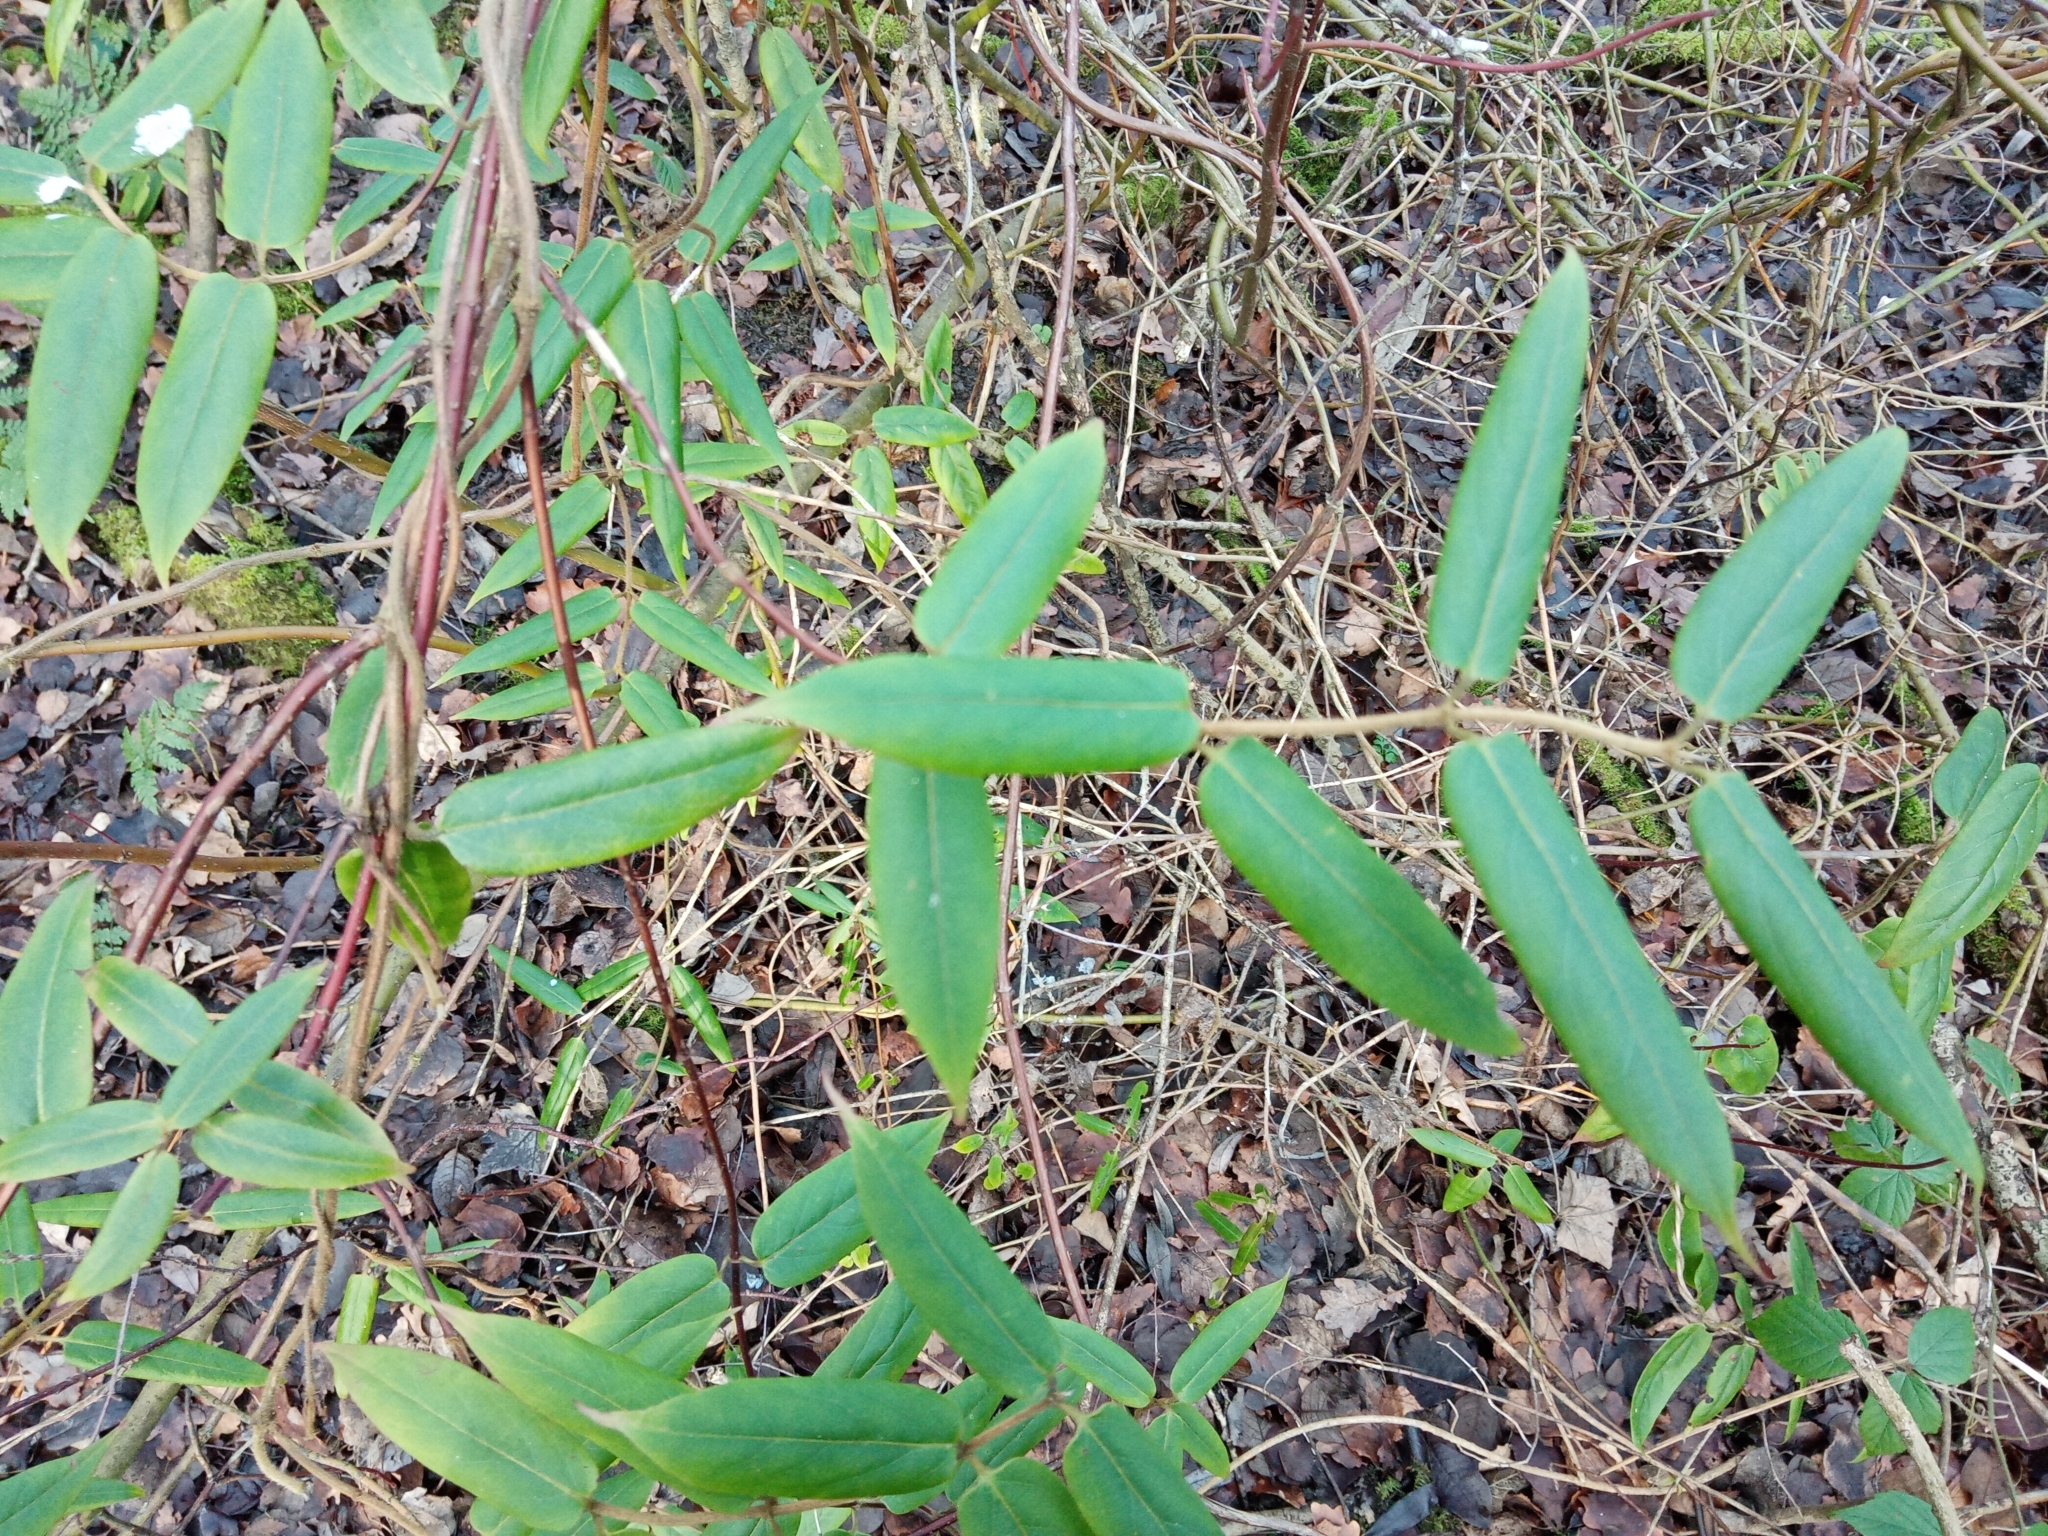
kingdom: Plantae
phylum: Tracheophyta
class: Magnoliopsida
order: Dipsacales
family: Caprifoliaceae
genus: Lonicera
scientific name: Lonicera acuminata
